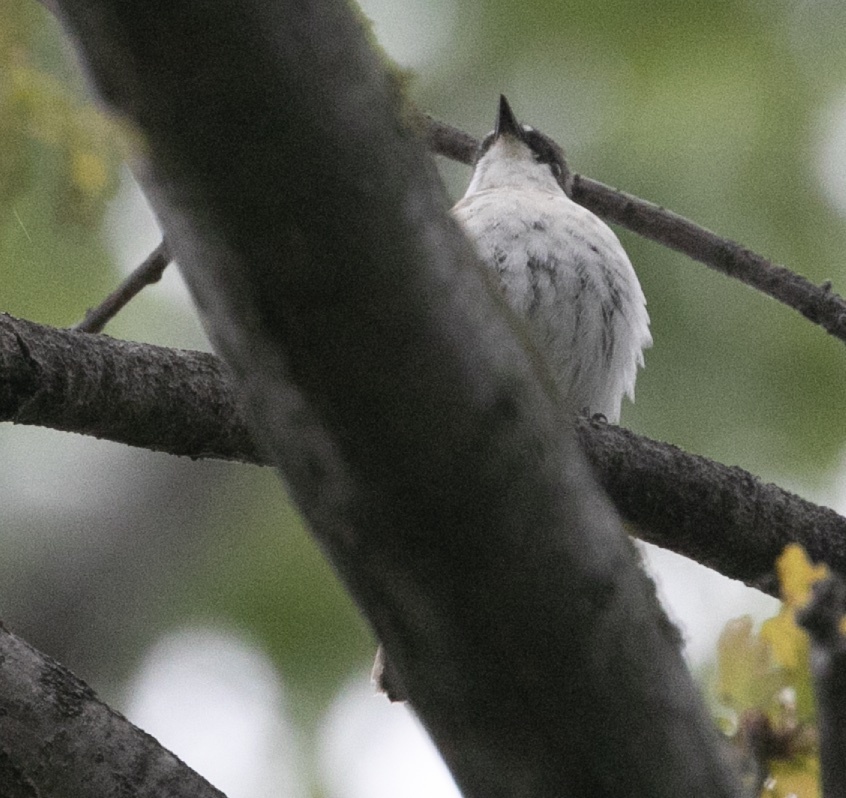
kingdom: Animalia
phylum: Chordata
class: Aves
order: Passeriformes
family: Muscicapidae
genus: Ficedula
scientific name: Ficedula hypoleuca
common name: European pied flycatcher
